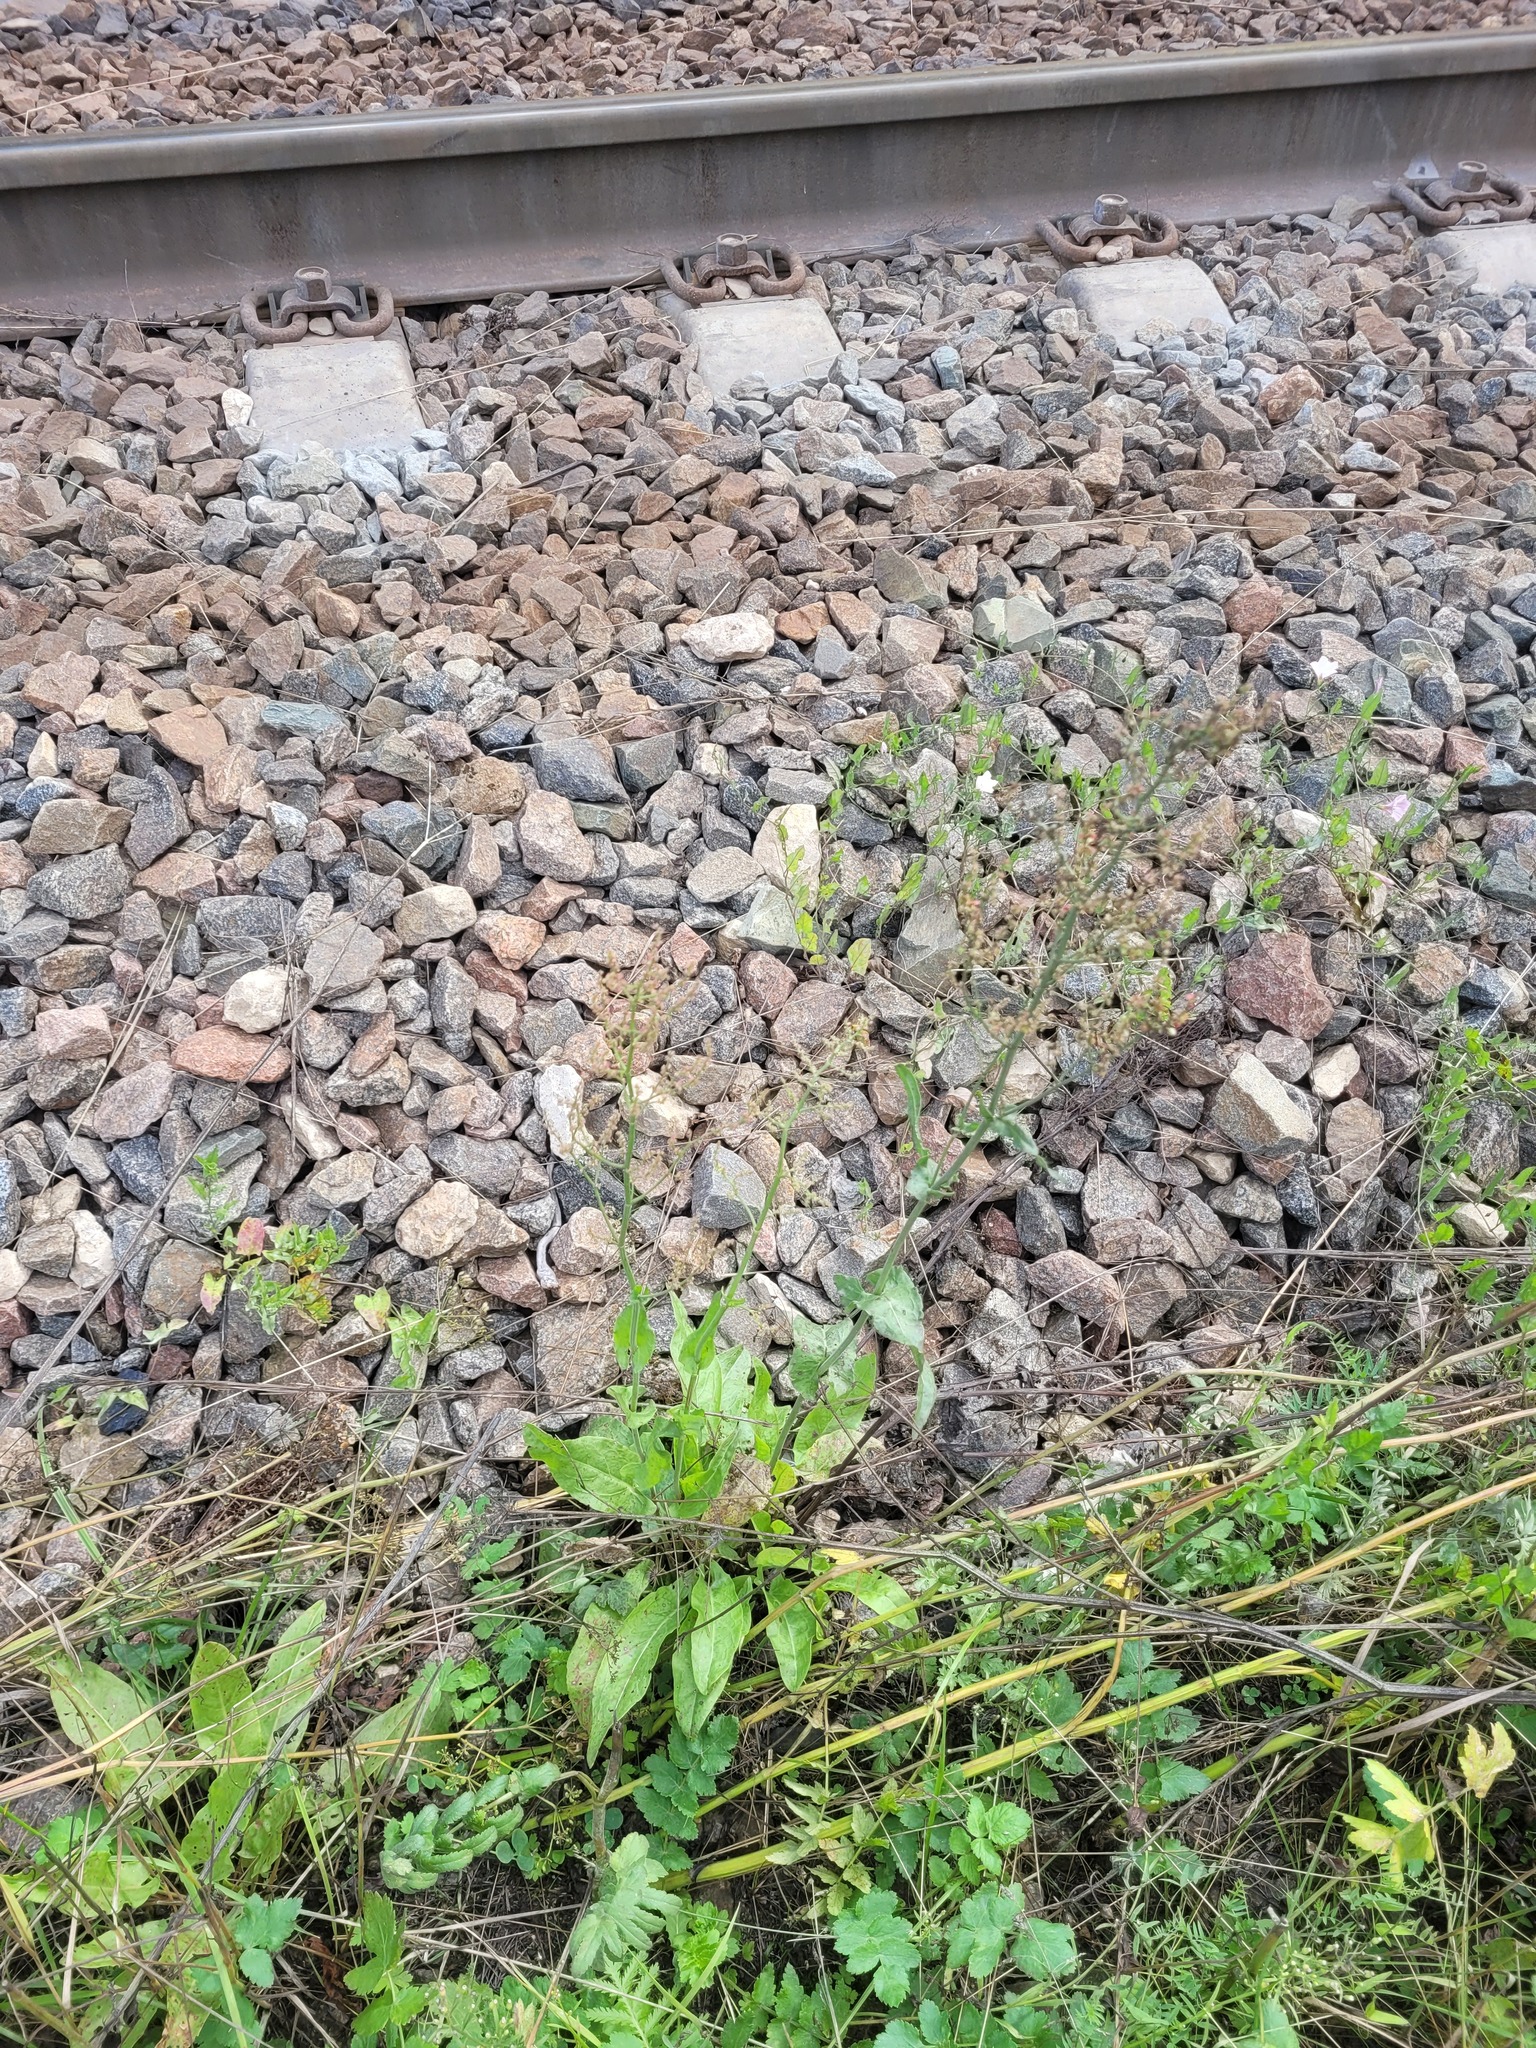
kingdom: Plantae
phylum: Tracheophyta
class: Magnoliopsida
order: Caryophyllales
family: Polygonaceae
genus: Rumex
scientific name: Rumex thyrsiflorus
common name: Garden sorrel
